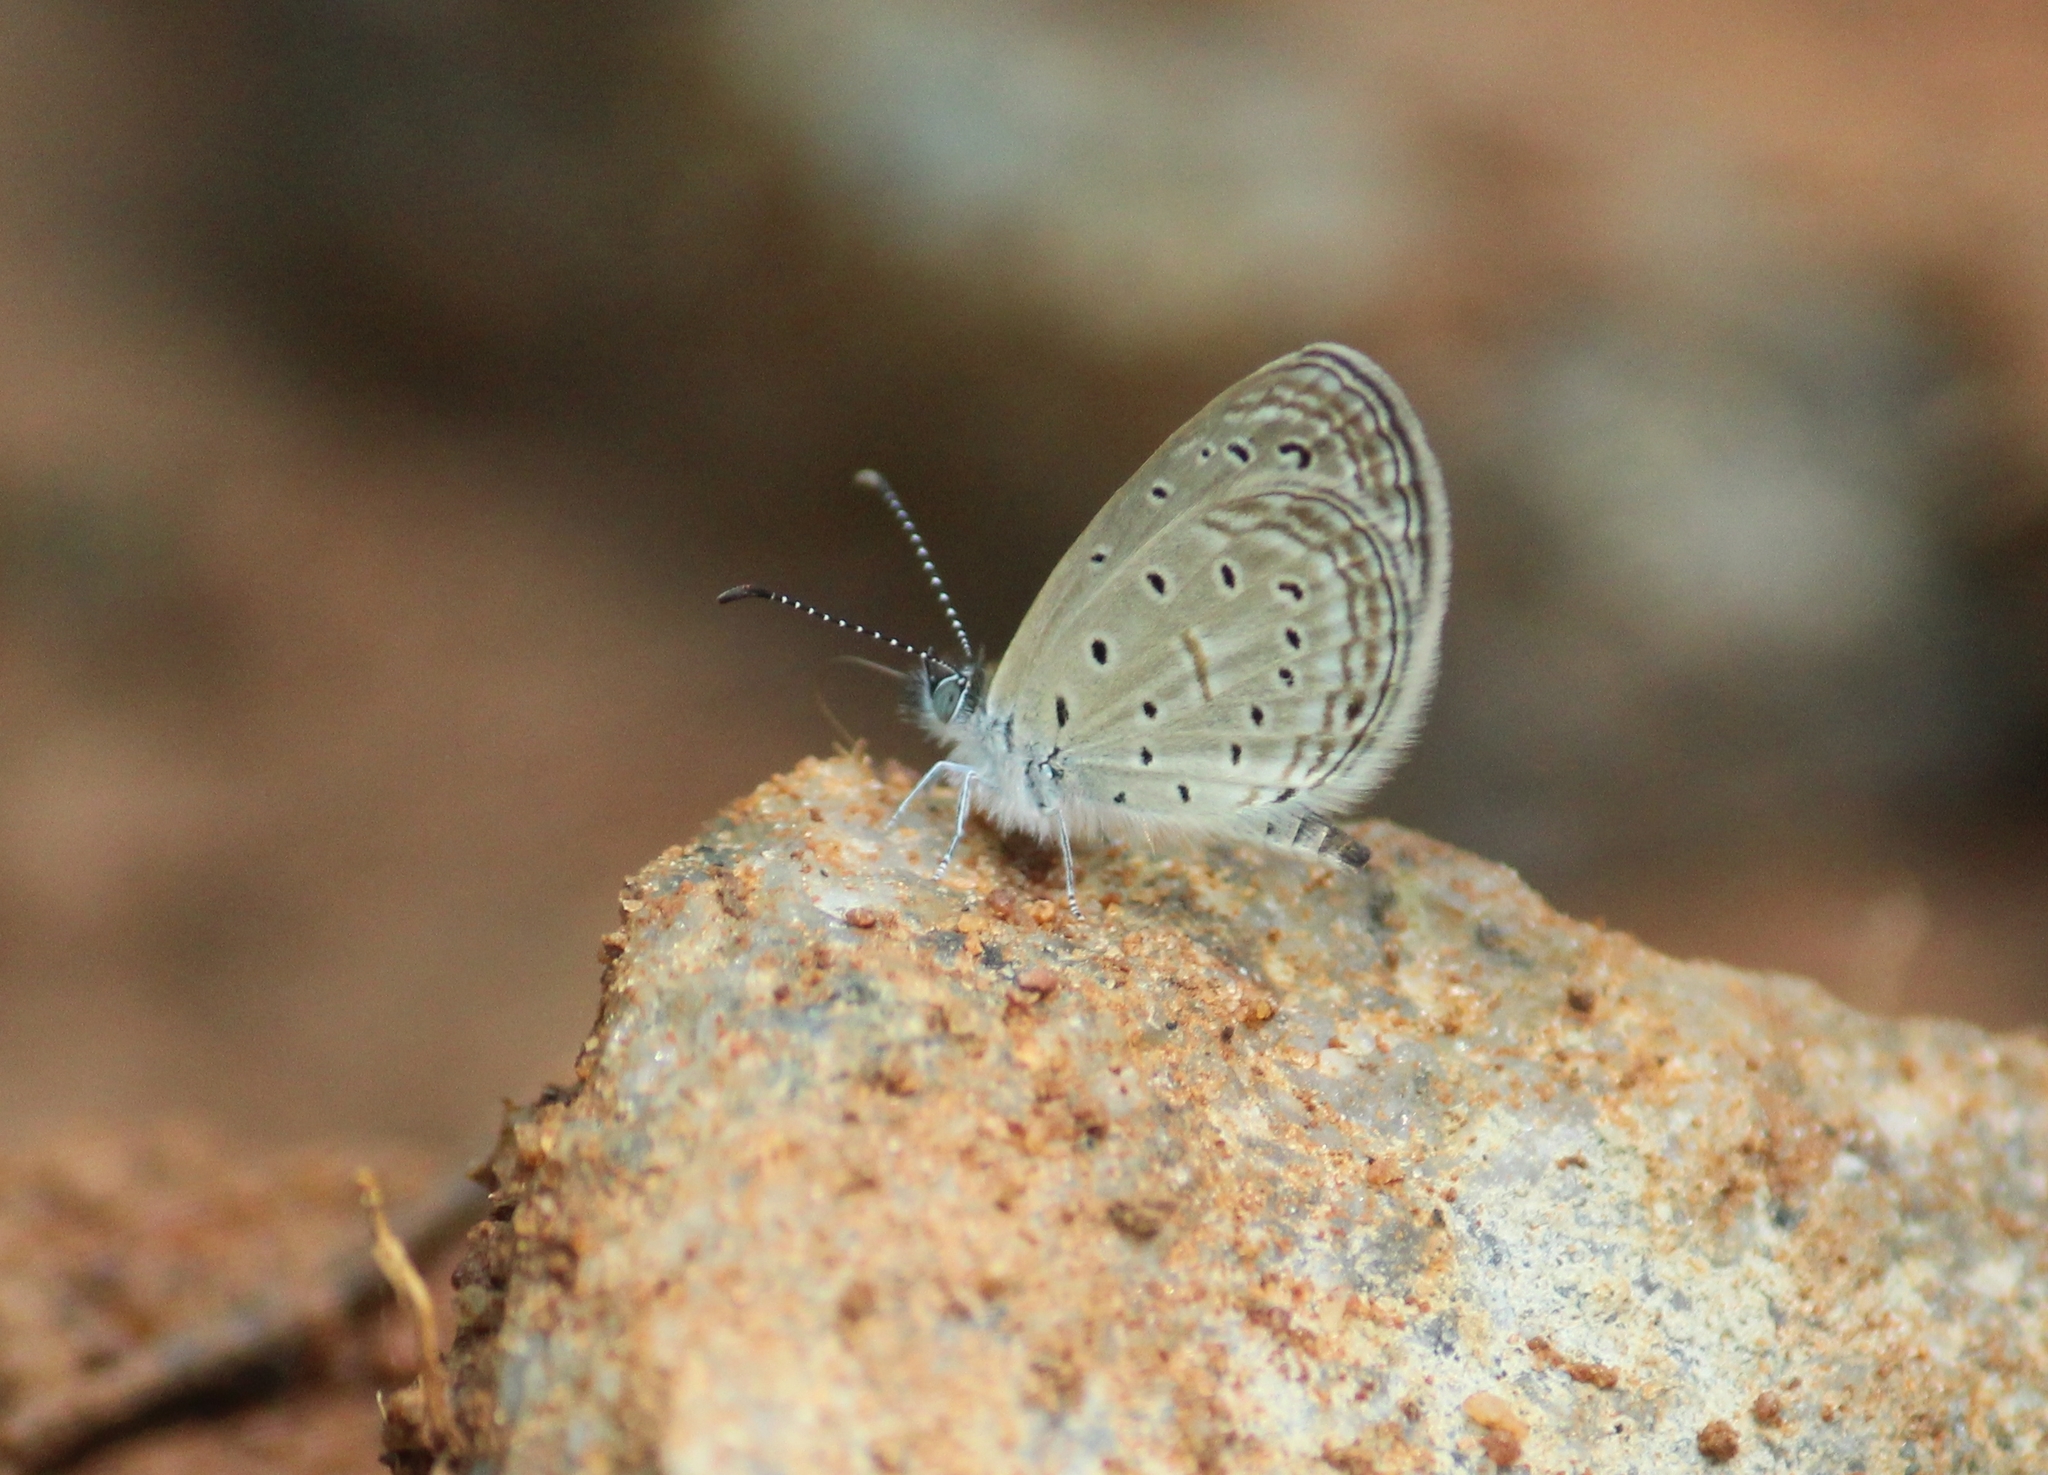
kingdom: Animalia
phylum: Arthropoda
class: Insecta
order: Lepidoptera
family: Lycaenidae
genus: Zizula
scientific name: Zizula hylax
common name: Gaika blue
